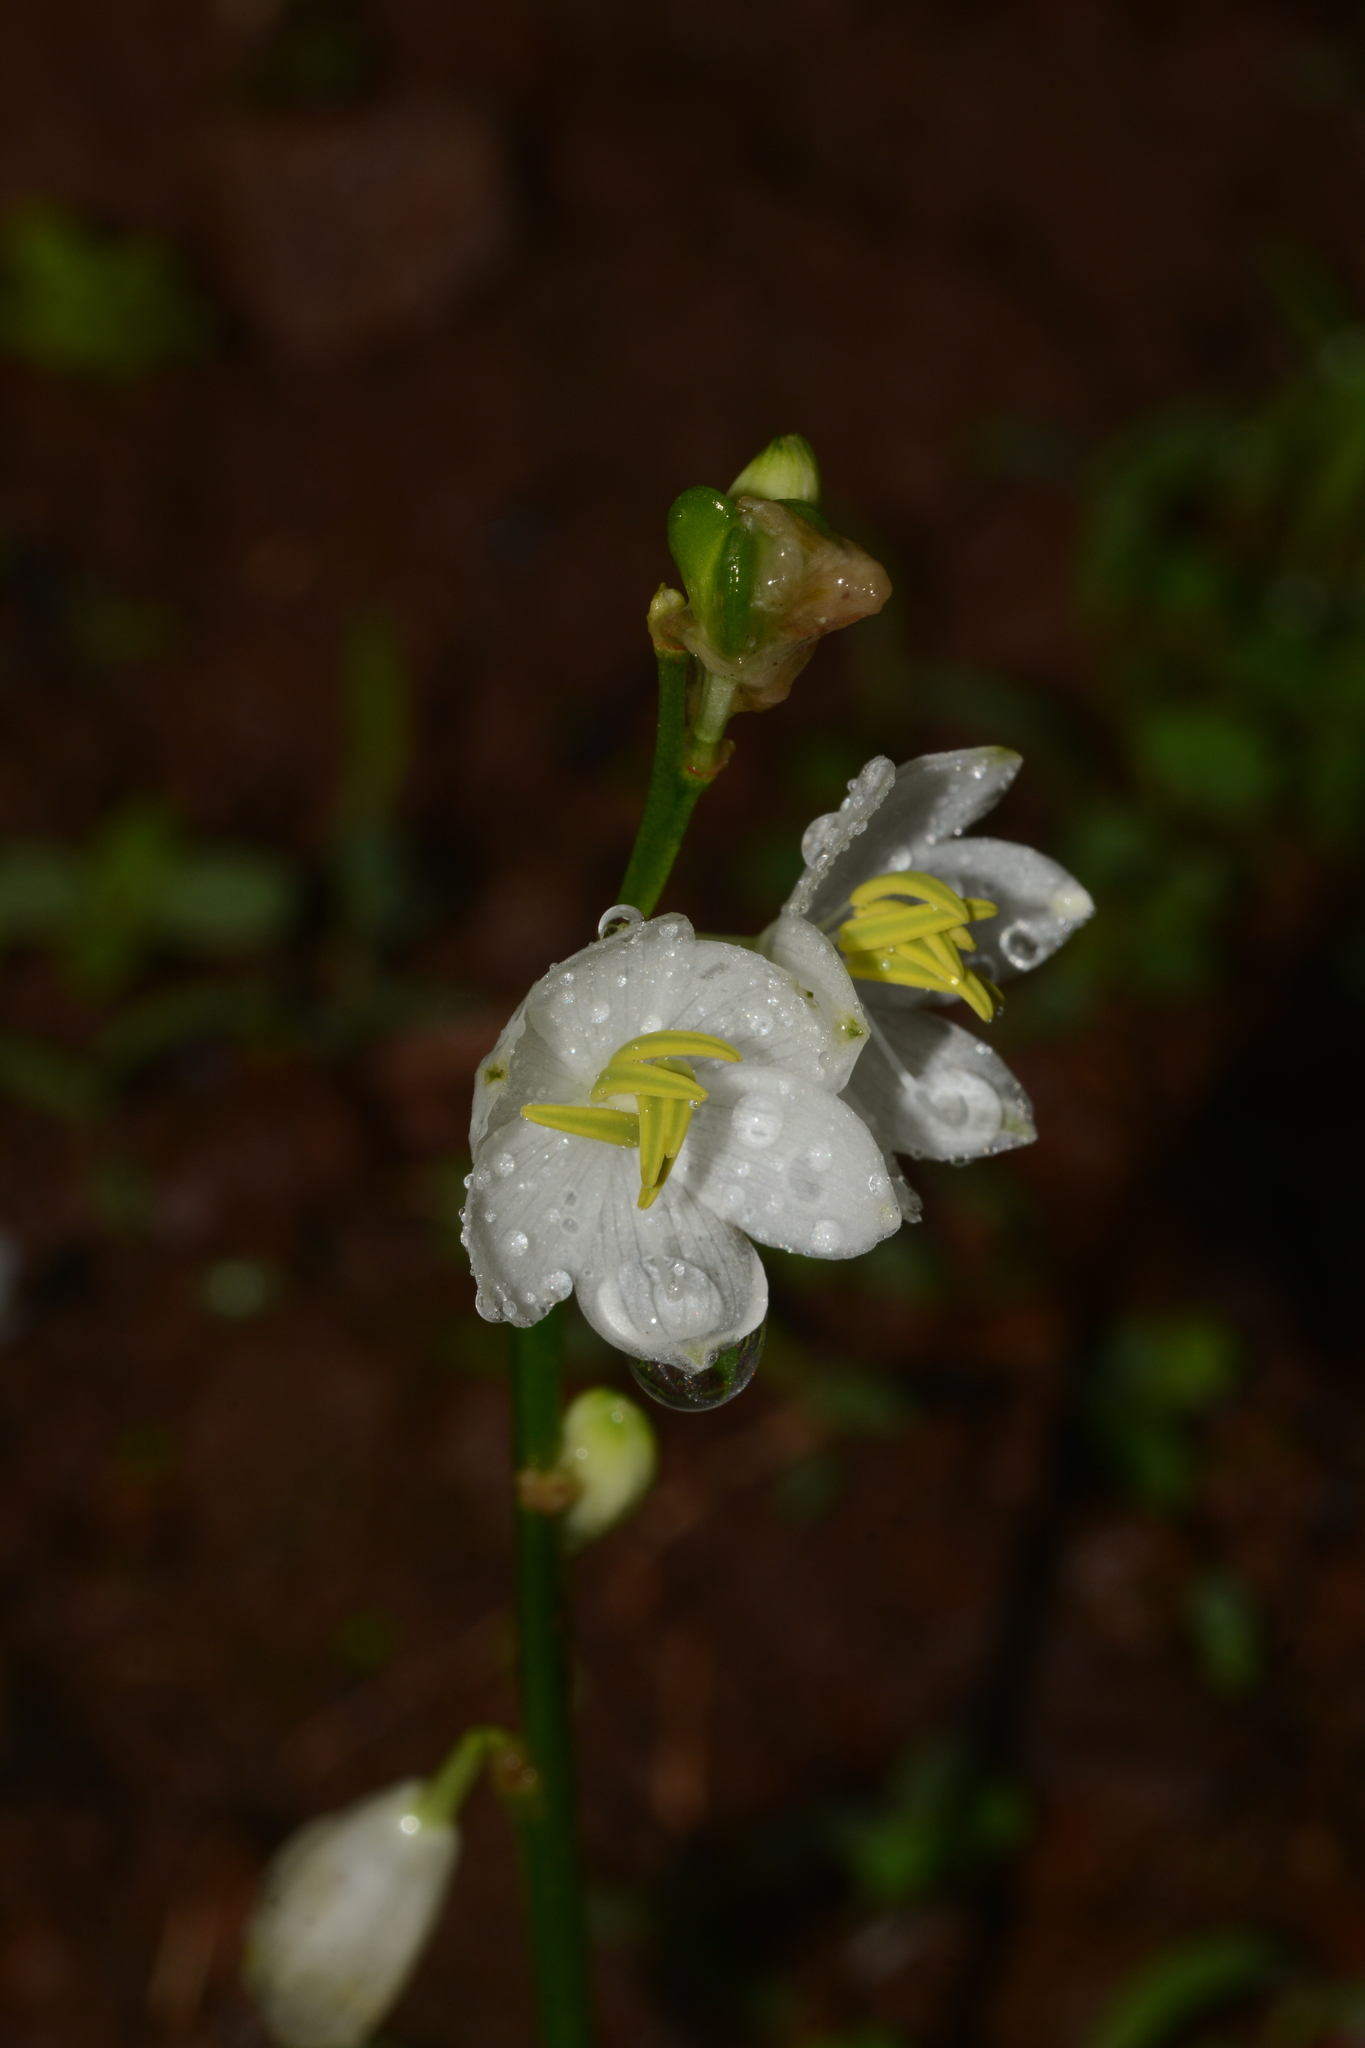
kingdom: Plantae
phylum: Tracheophyta
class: Liliopsida
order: Asparagales
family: Asparagaceae
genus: Chlorophytum
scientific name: Chlorophytum tuberosum
